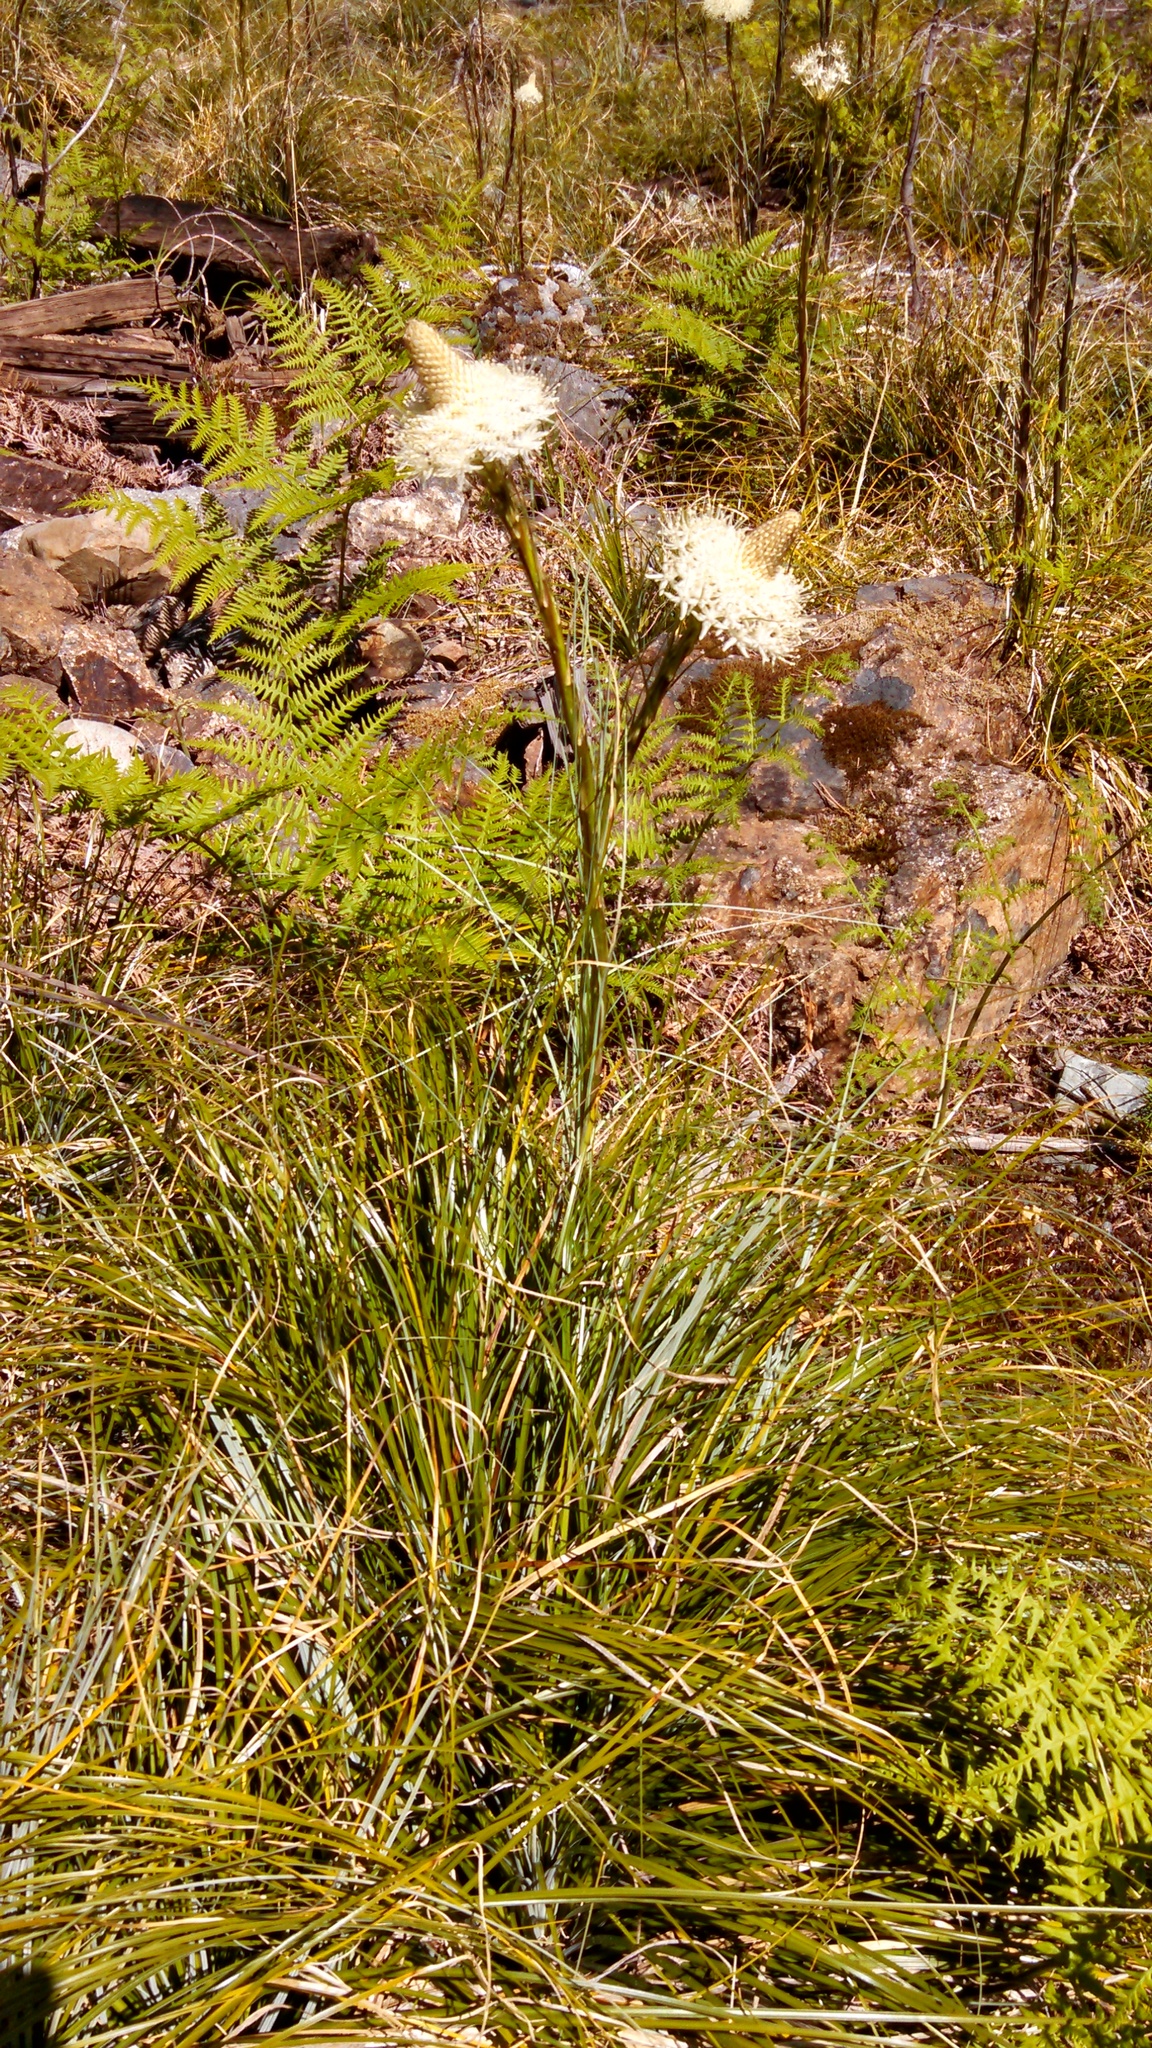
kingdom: Plantae
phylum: Tracheophyta
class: Liliopsida
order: Liliales
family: Melanthiaceae
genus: Xerophyllum
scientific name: Xerophyllum tenax
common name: Bear-grass
